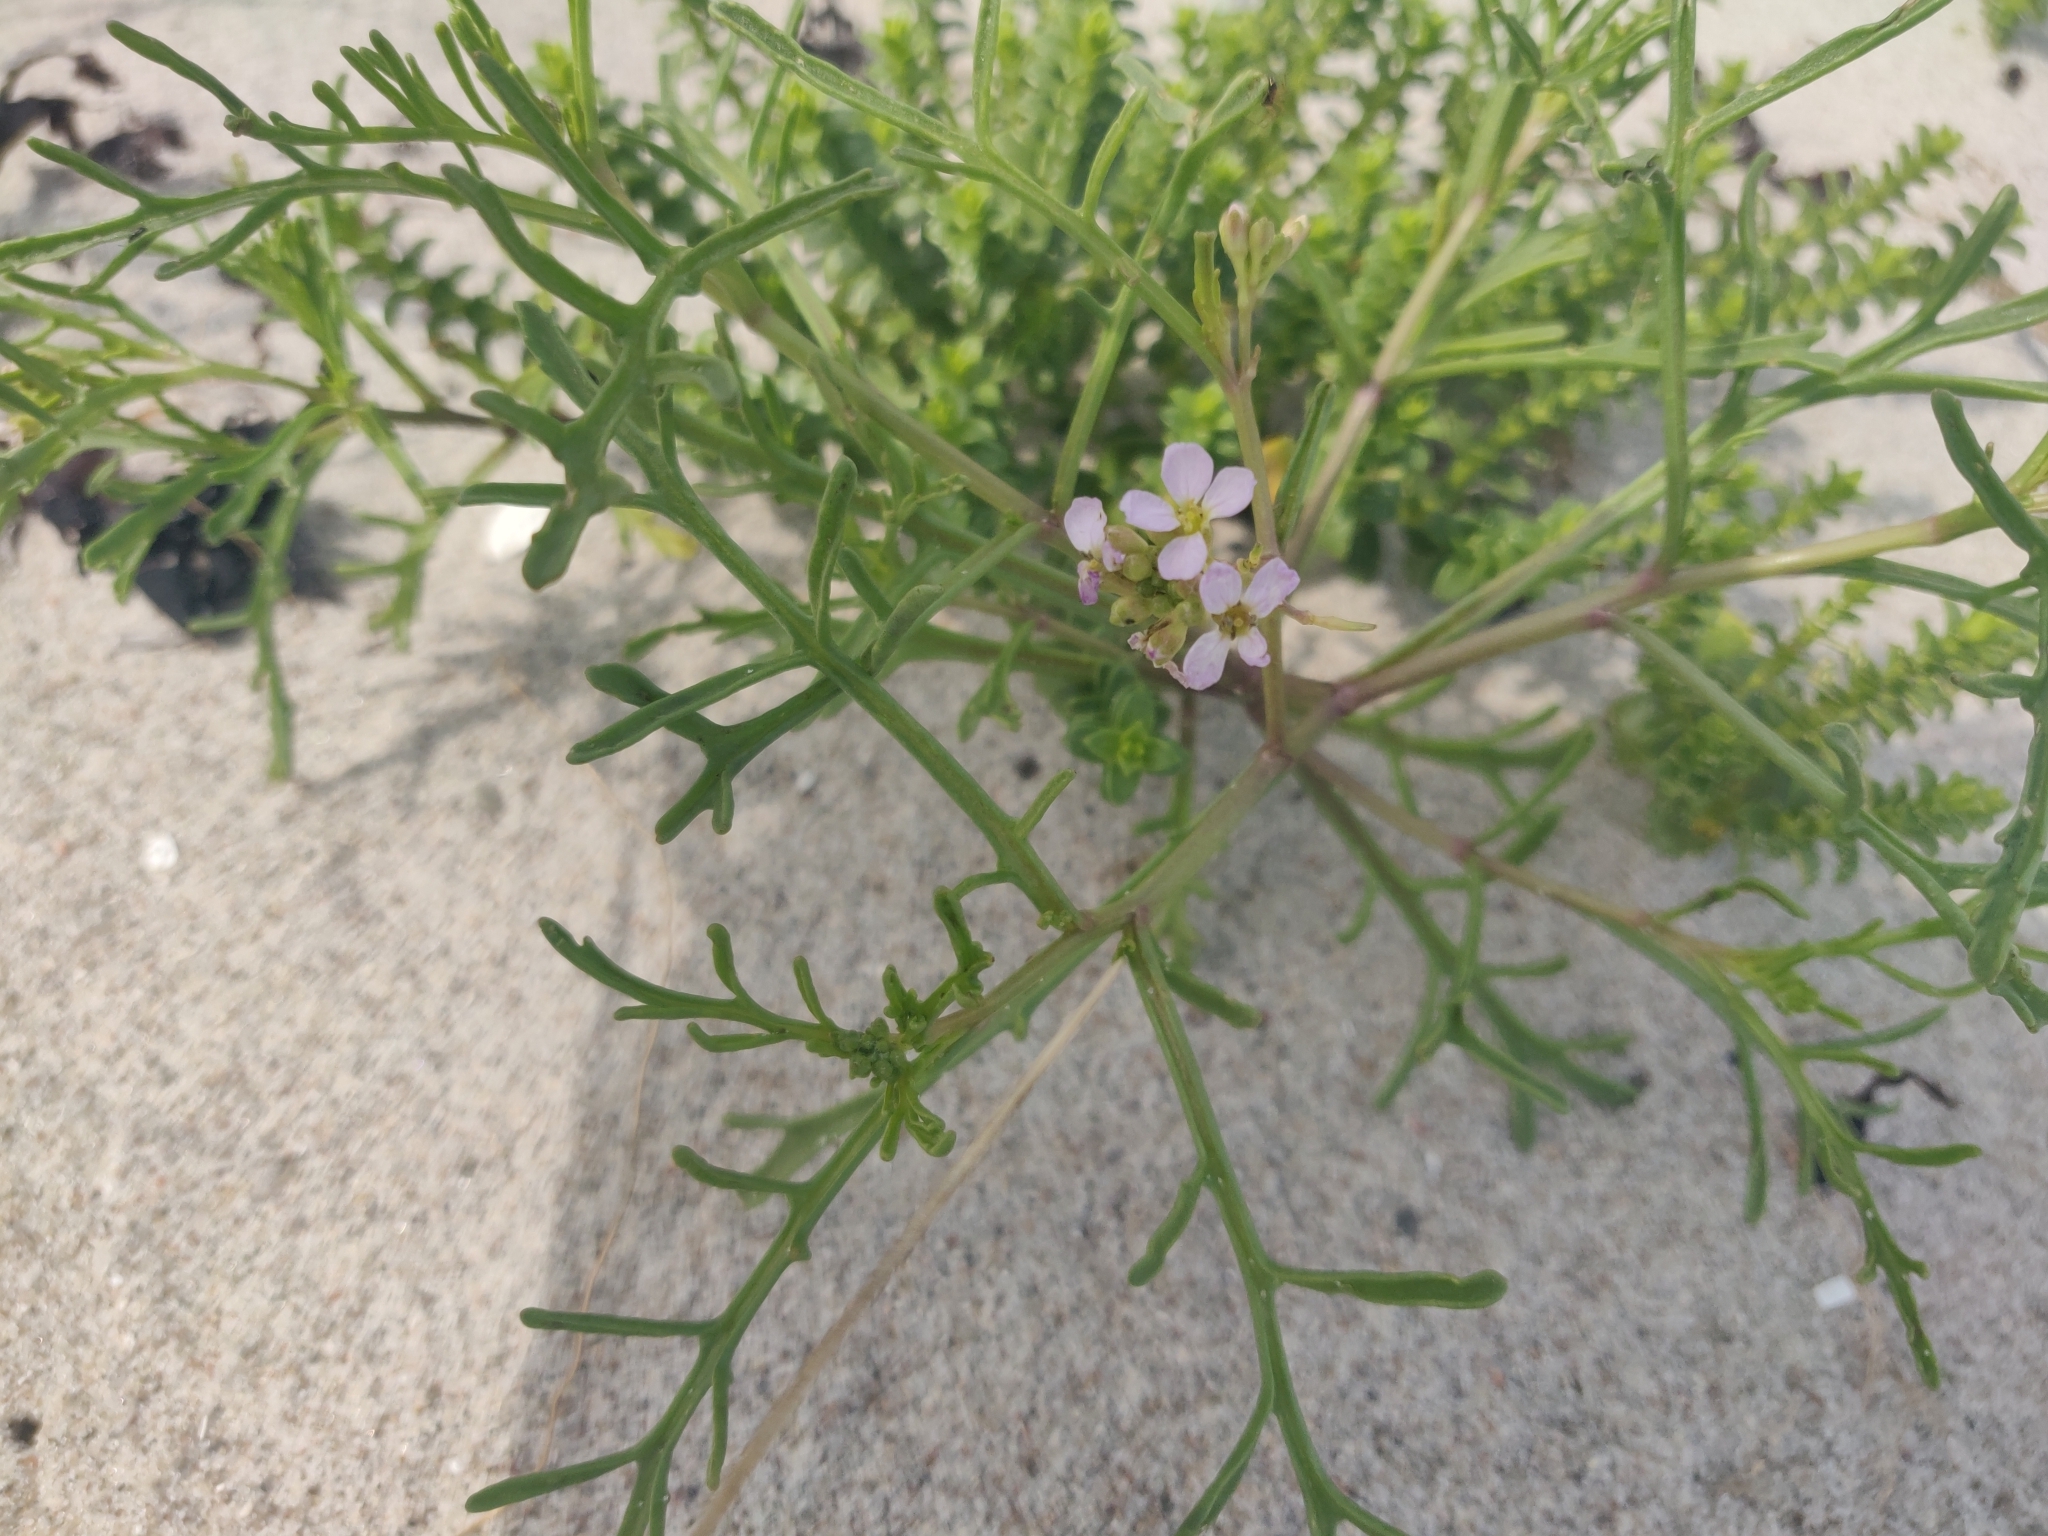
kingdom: Plantae
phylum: Tracheophyta
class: Magnoliopsida
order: Brassicales
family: Brassicaceae
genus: Cakile
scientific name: Cakile maritima
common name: Sea rocket
